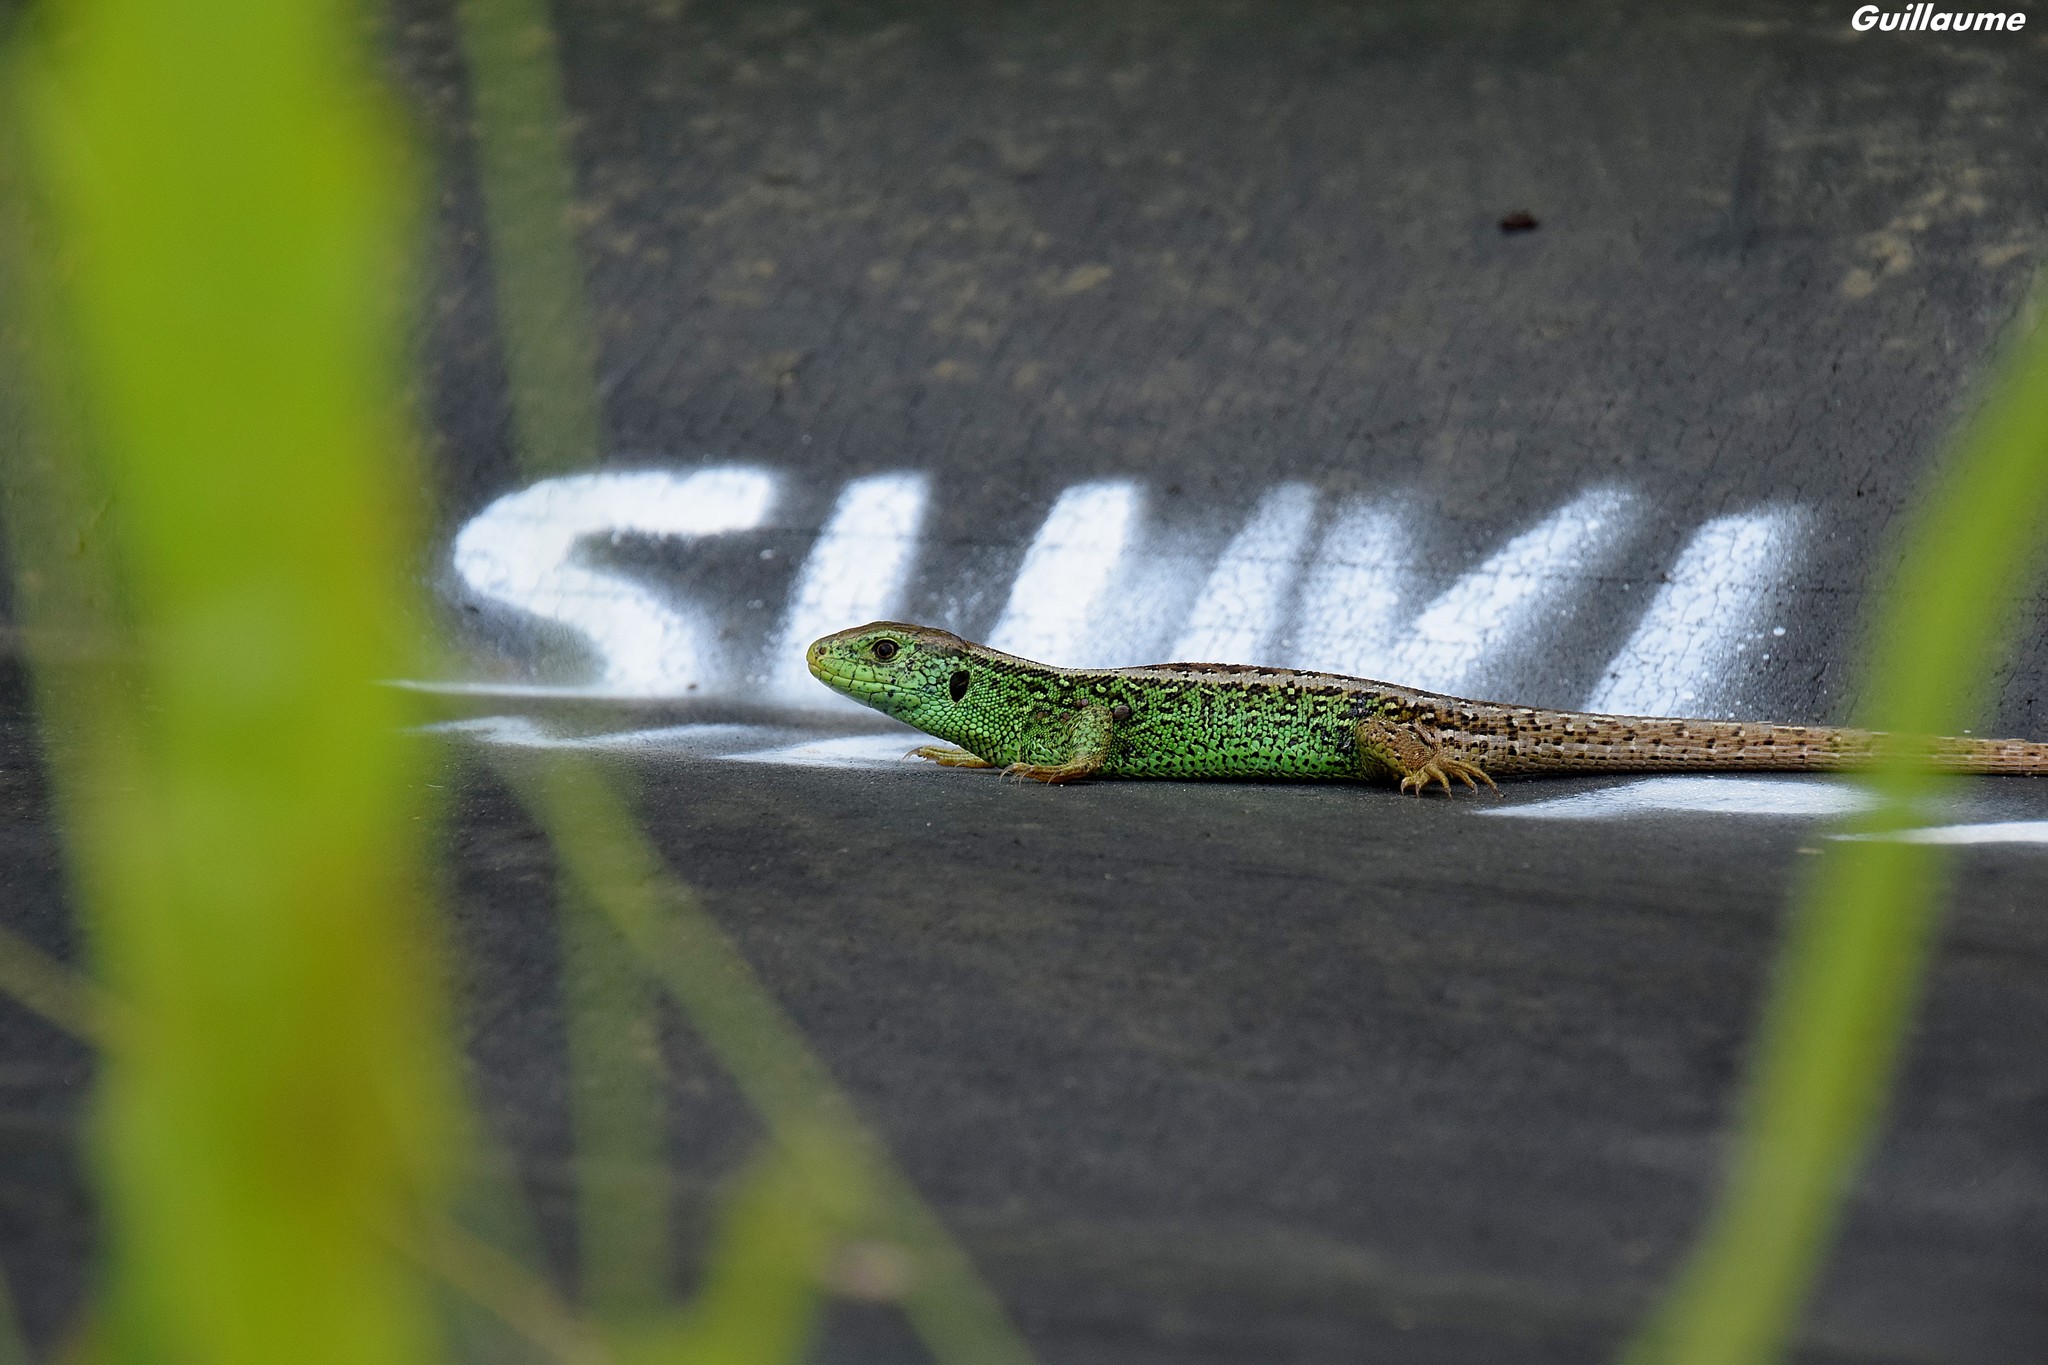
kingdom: Animalia
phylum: Chordata
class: Squamata
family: Lacertidae
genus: Lacerta
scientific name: Lacerta agilis
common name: Sand lizard
